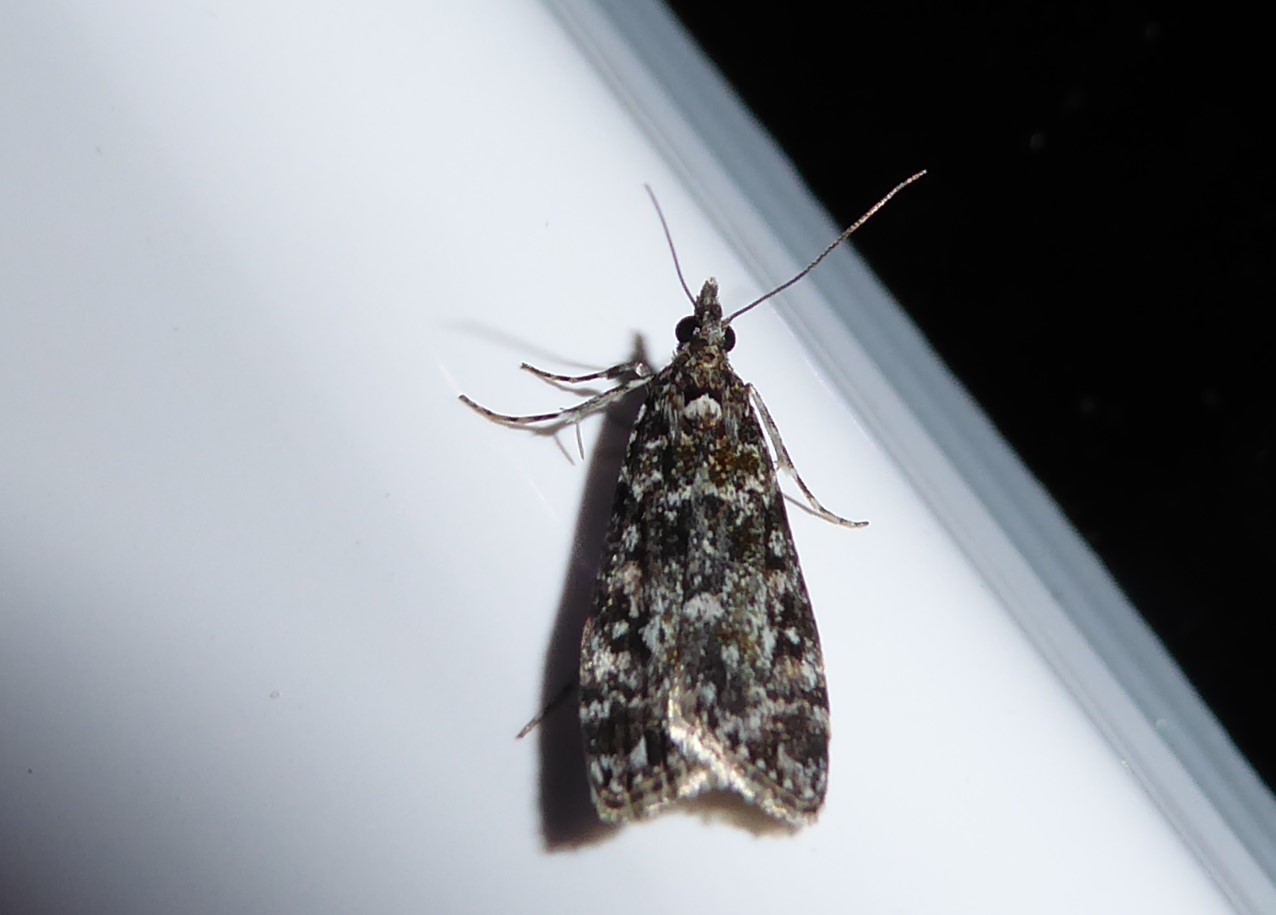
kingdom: Animalia
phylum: Arthropoda
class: Insecta
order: Lepidoptera
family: Crambidae
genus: Eudonia
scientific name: Eudonia philerga
